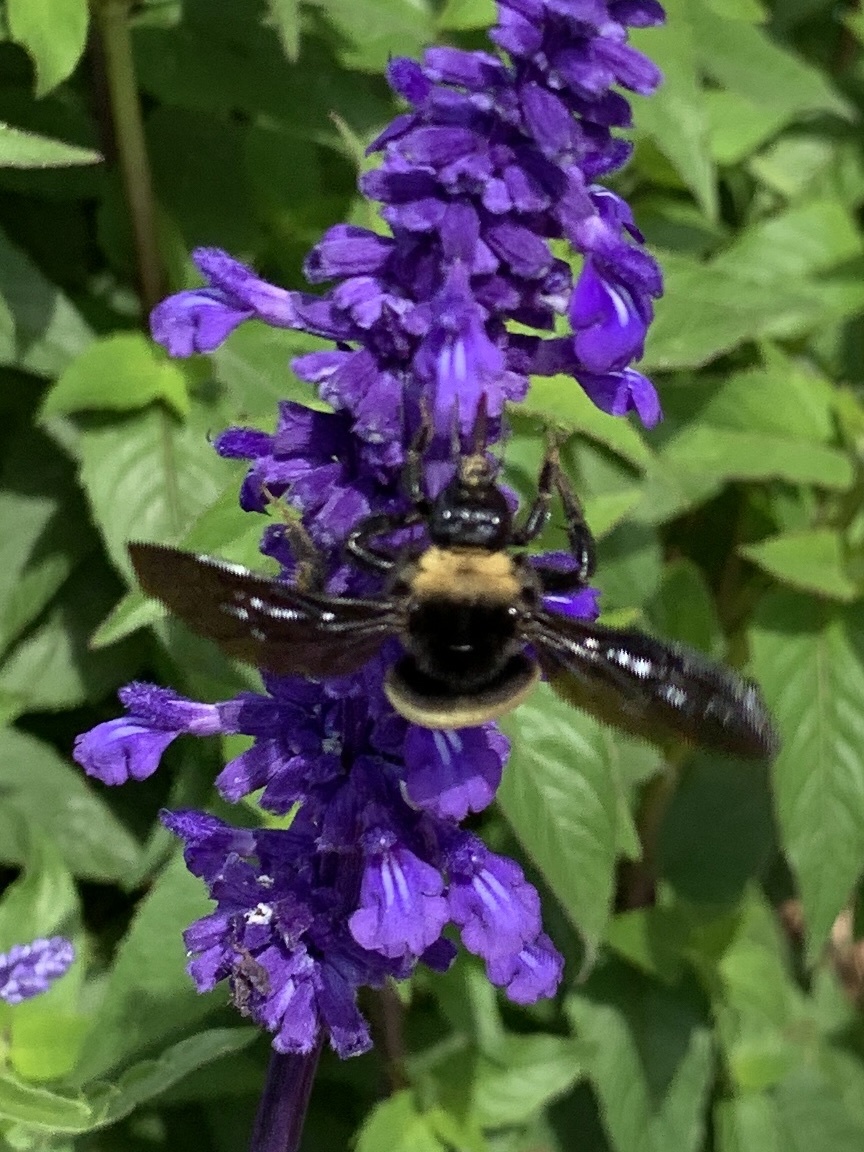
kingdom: Animalia
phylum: Arthropoda
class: Insecta
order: Hymenoptera
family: Apidae
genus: Bombus
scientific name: Bombus pensylvanicus
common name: Bumble bee
